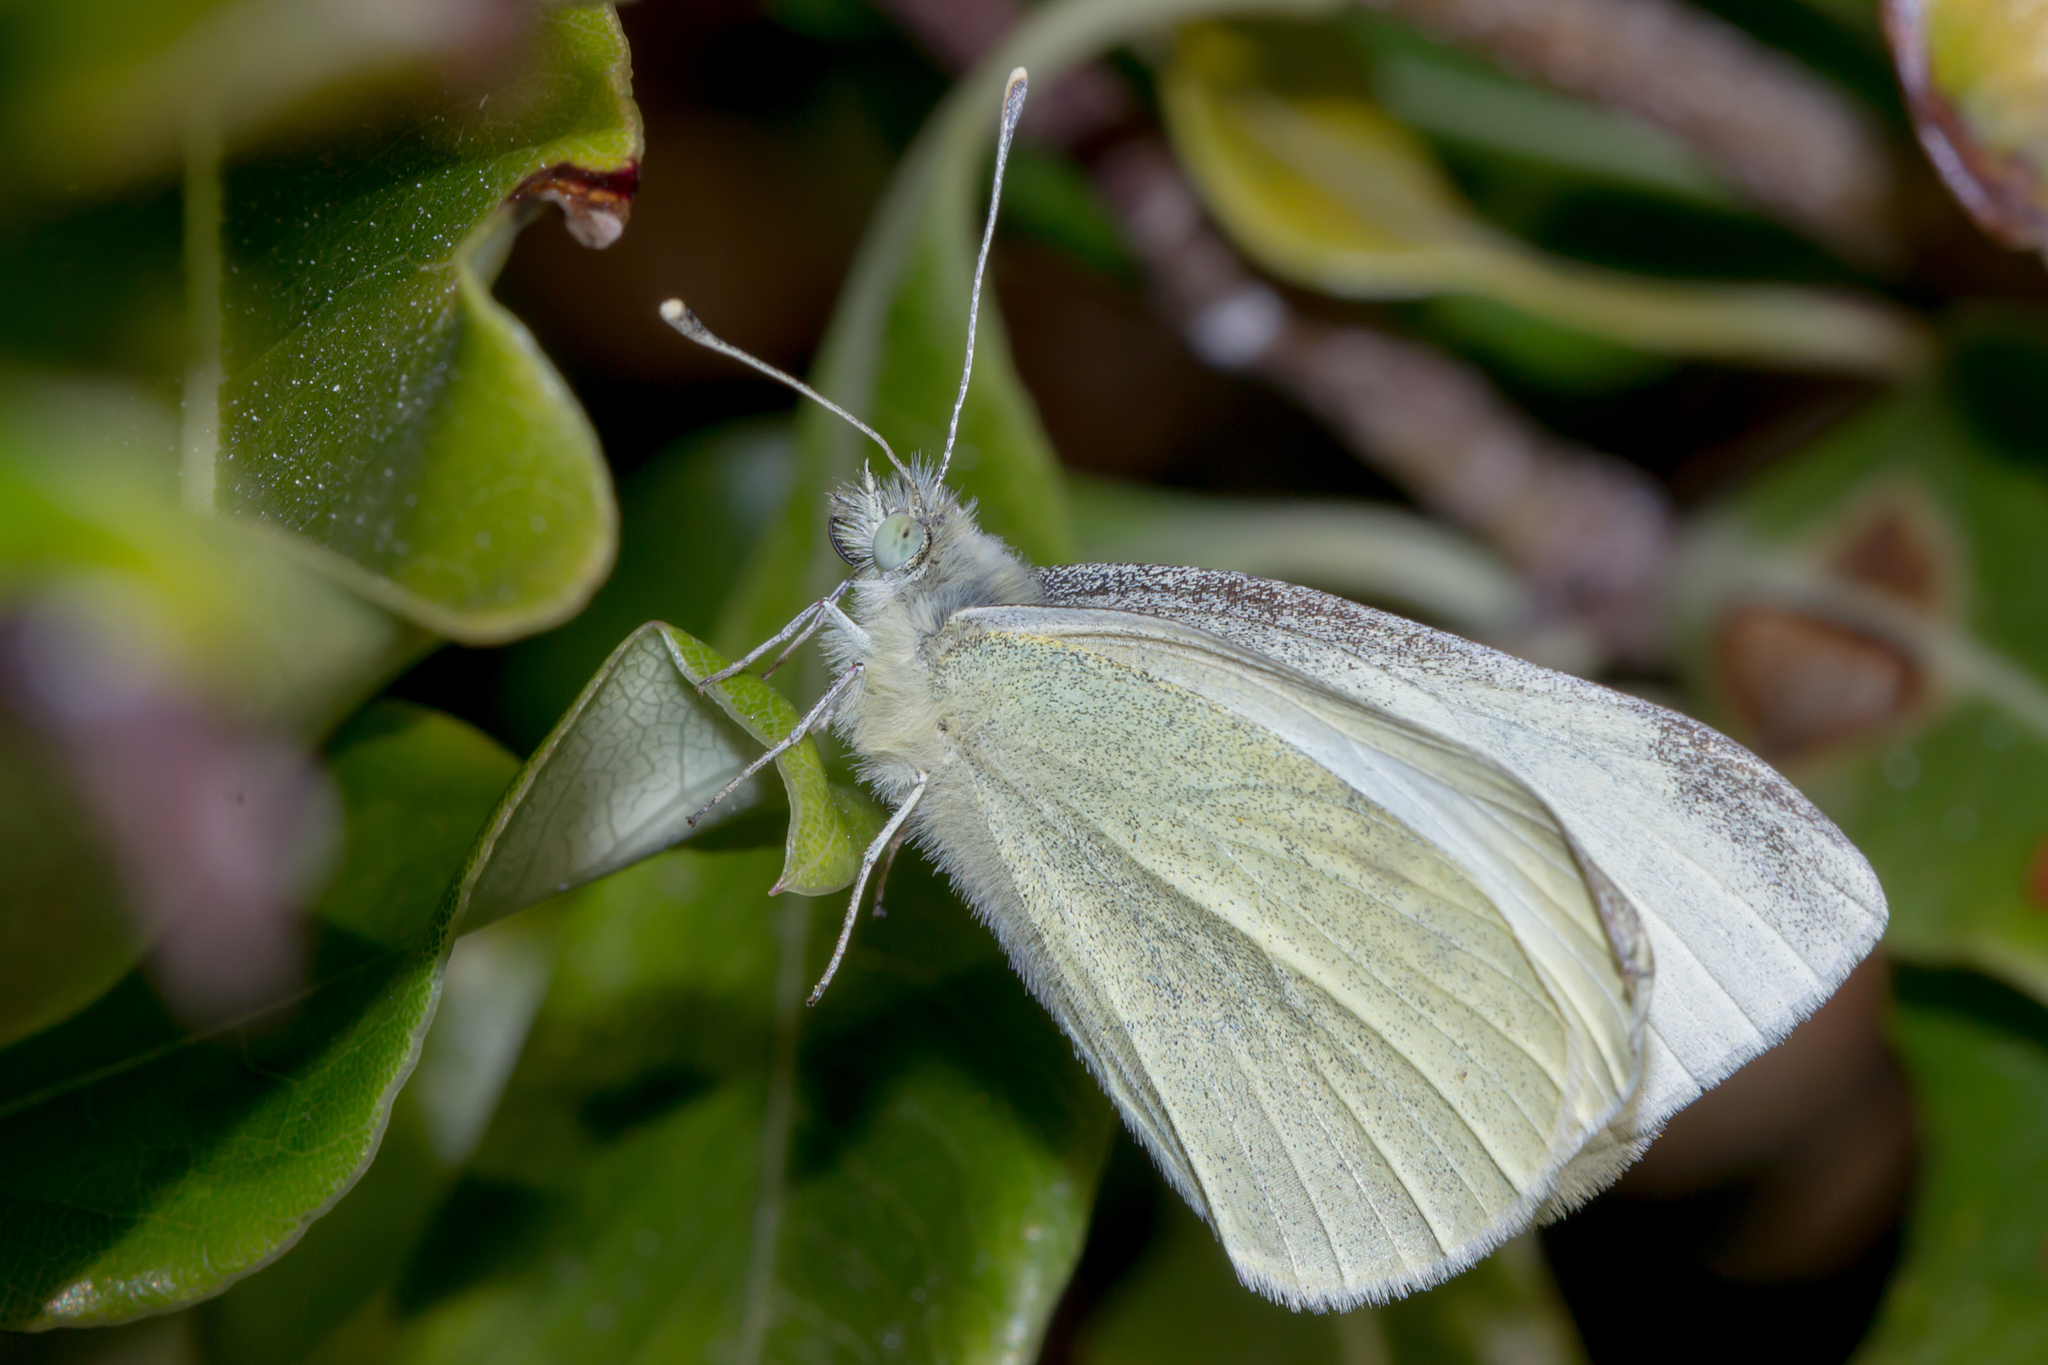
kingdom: Animalia
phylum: Arthropoda
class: Insecta
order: Lepidoptera
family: Pieridae
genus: Pieris
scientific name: Pieris rapae
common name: Small white
